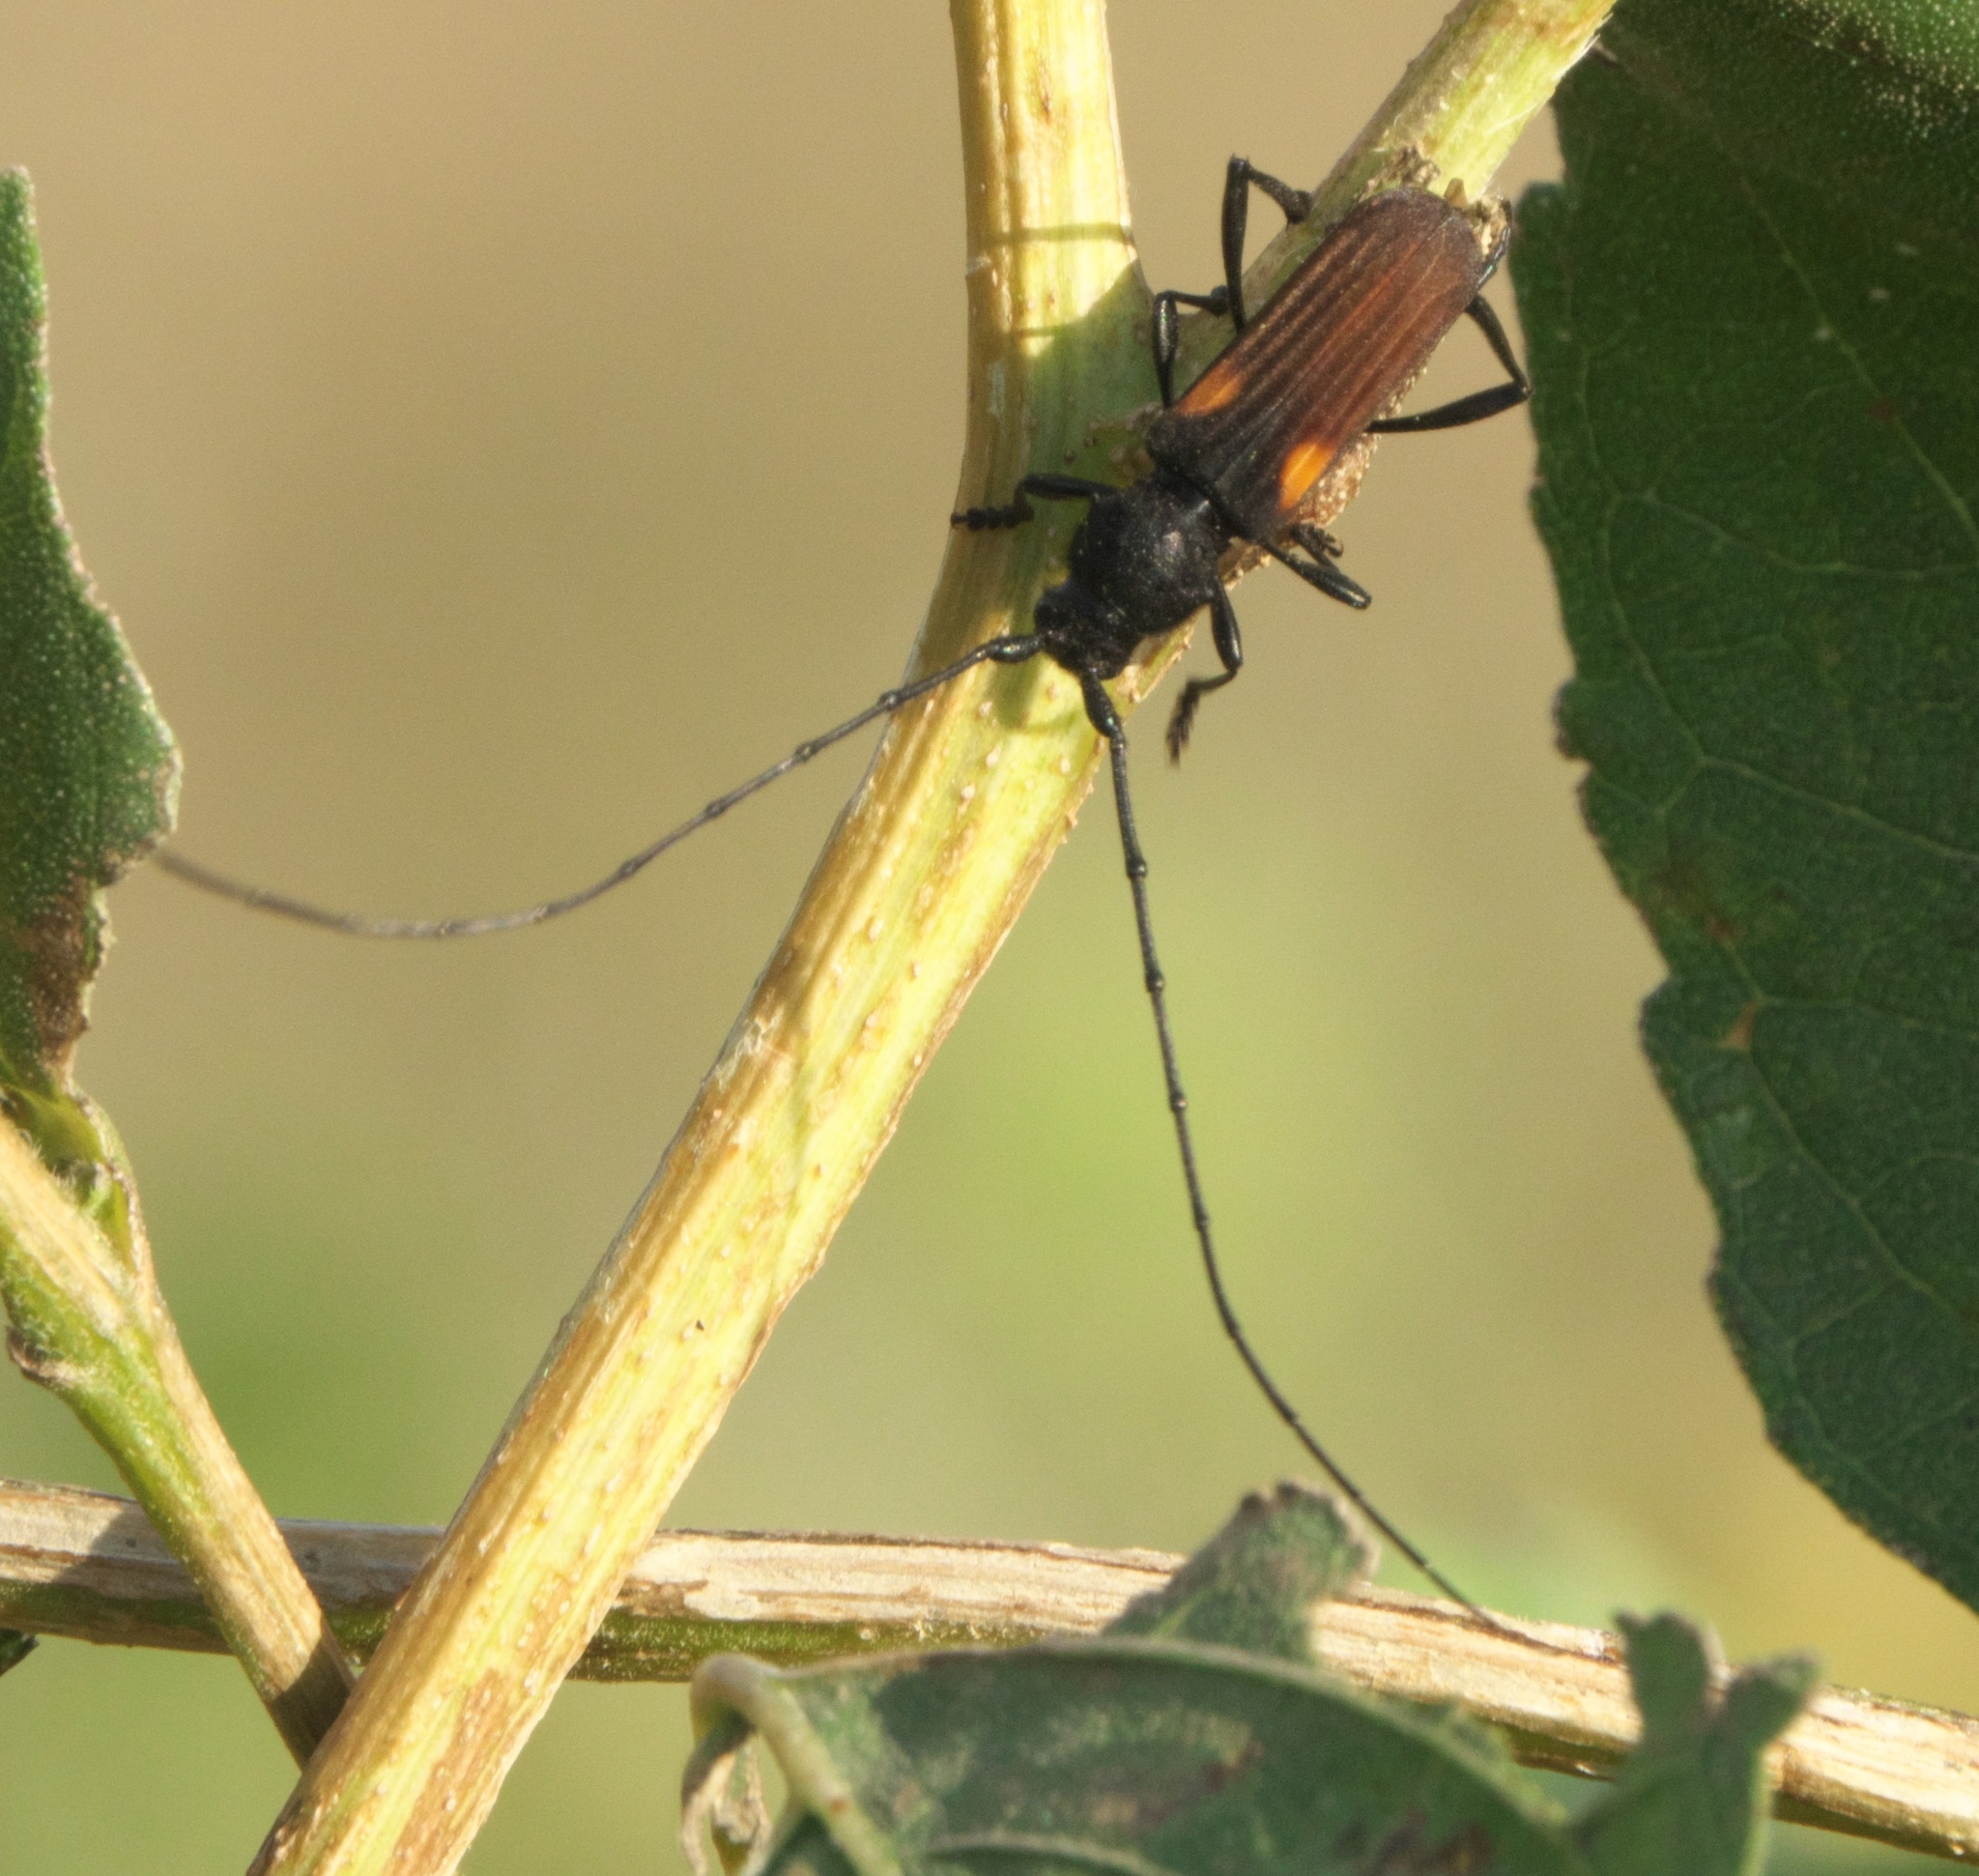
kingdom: Animalia
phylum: Arthropoda
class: Insecta
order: Coleoptera
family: Cerambycidae
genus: Tragidion
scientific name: Tragidion coquus
